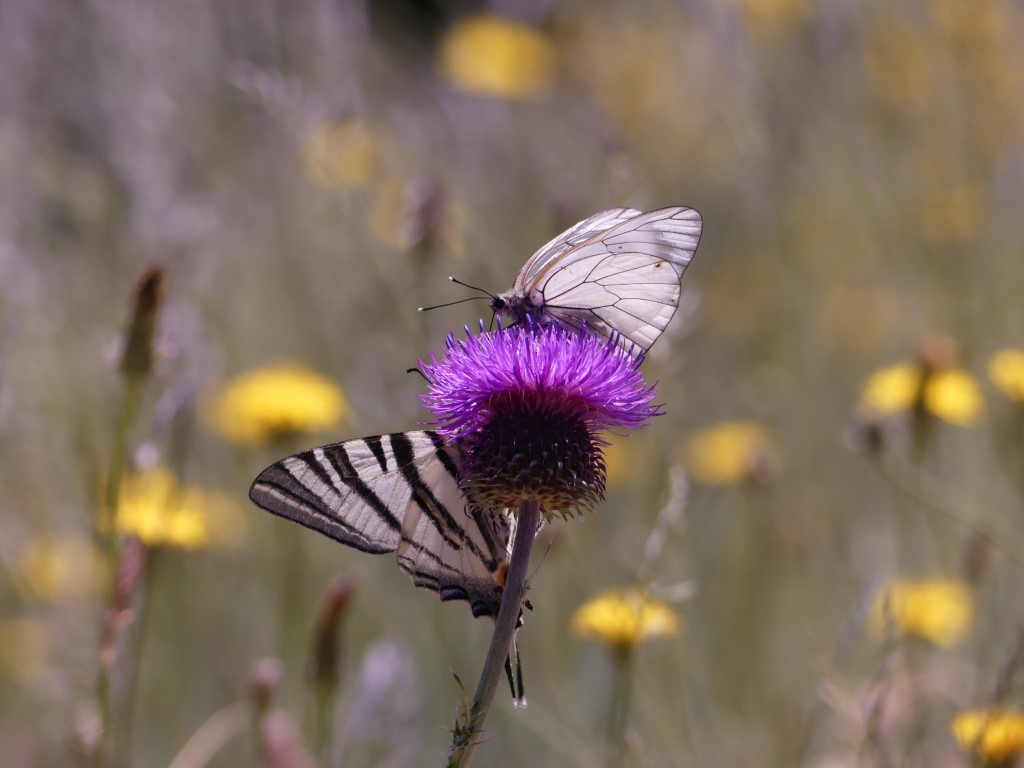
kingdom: Animalia
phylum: Arthropoda
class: Insecta
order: Lepidoptera
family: Pieridae
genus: Aporia
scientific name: Aporia crataegi
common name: Black-veined white
